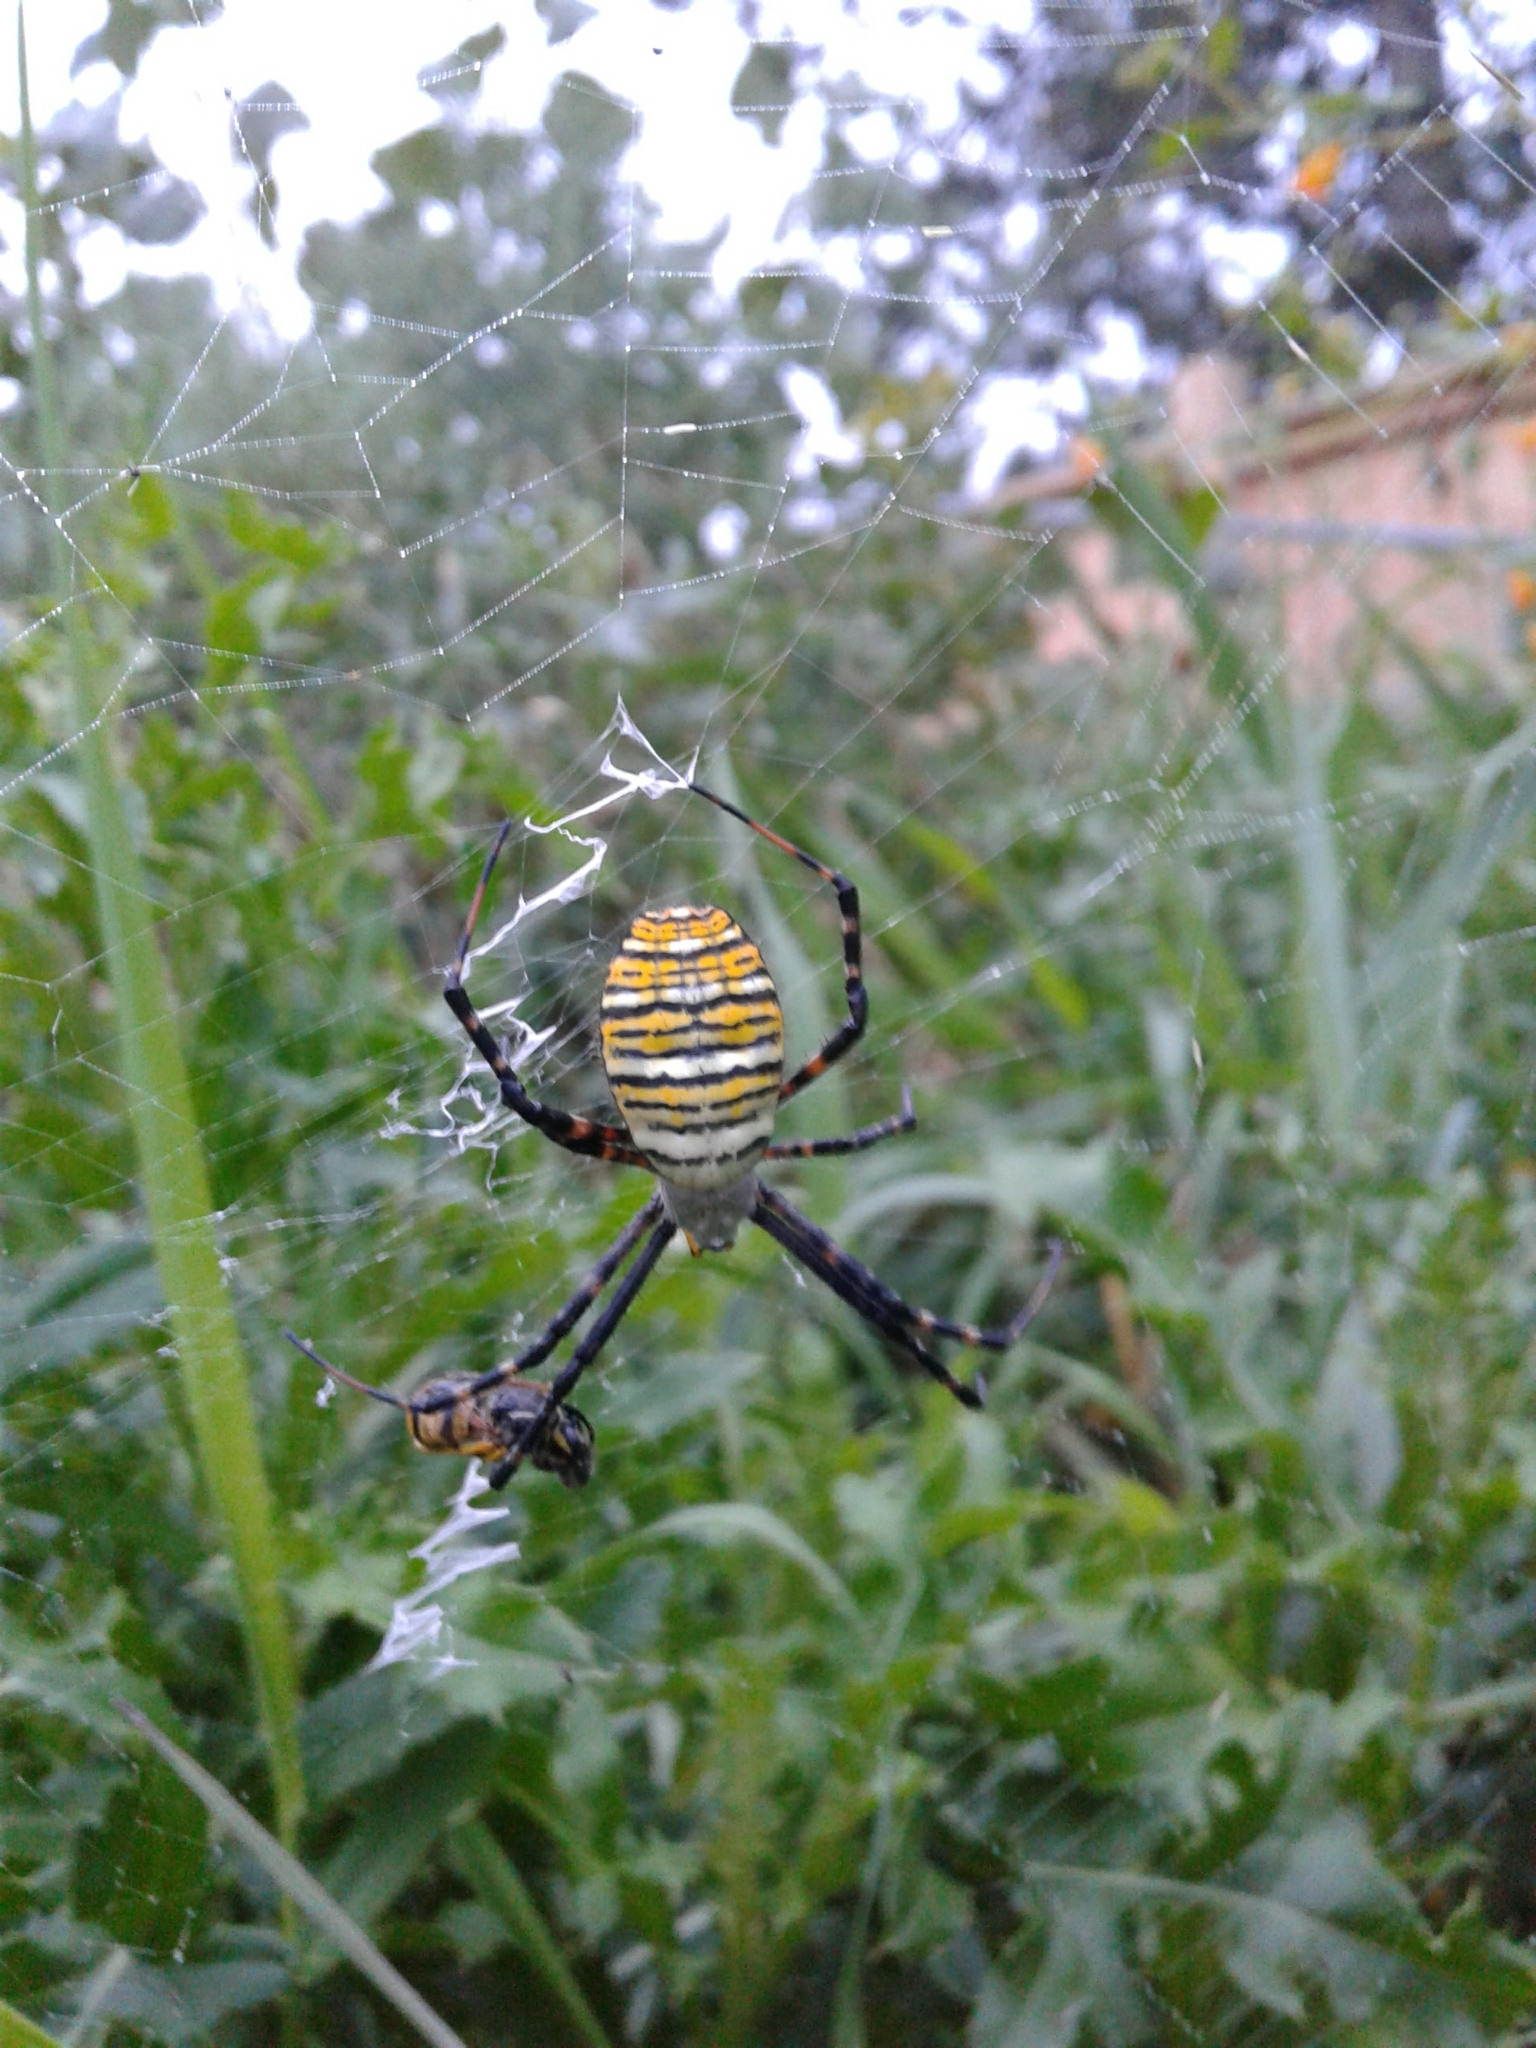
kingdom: Animalia
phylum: Arthropoda
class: Arachnida
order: Araneae
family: Araneidae
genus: Argiope
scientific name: Argiope trifasciata
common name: Banded garden spider
